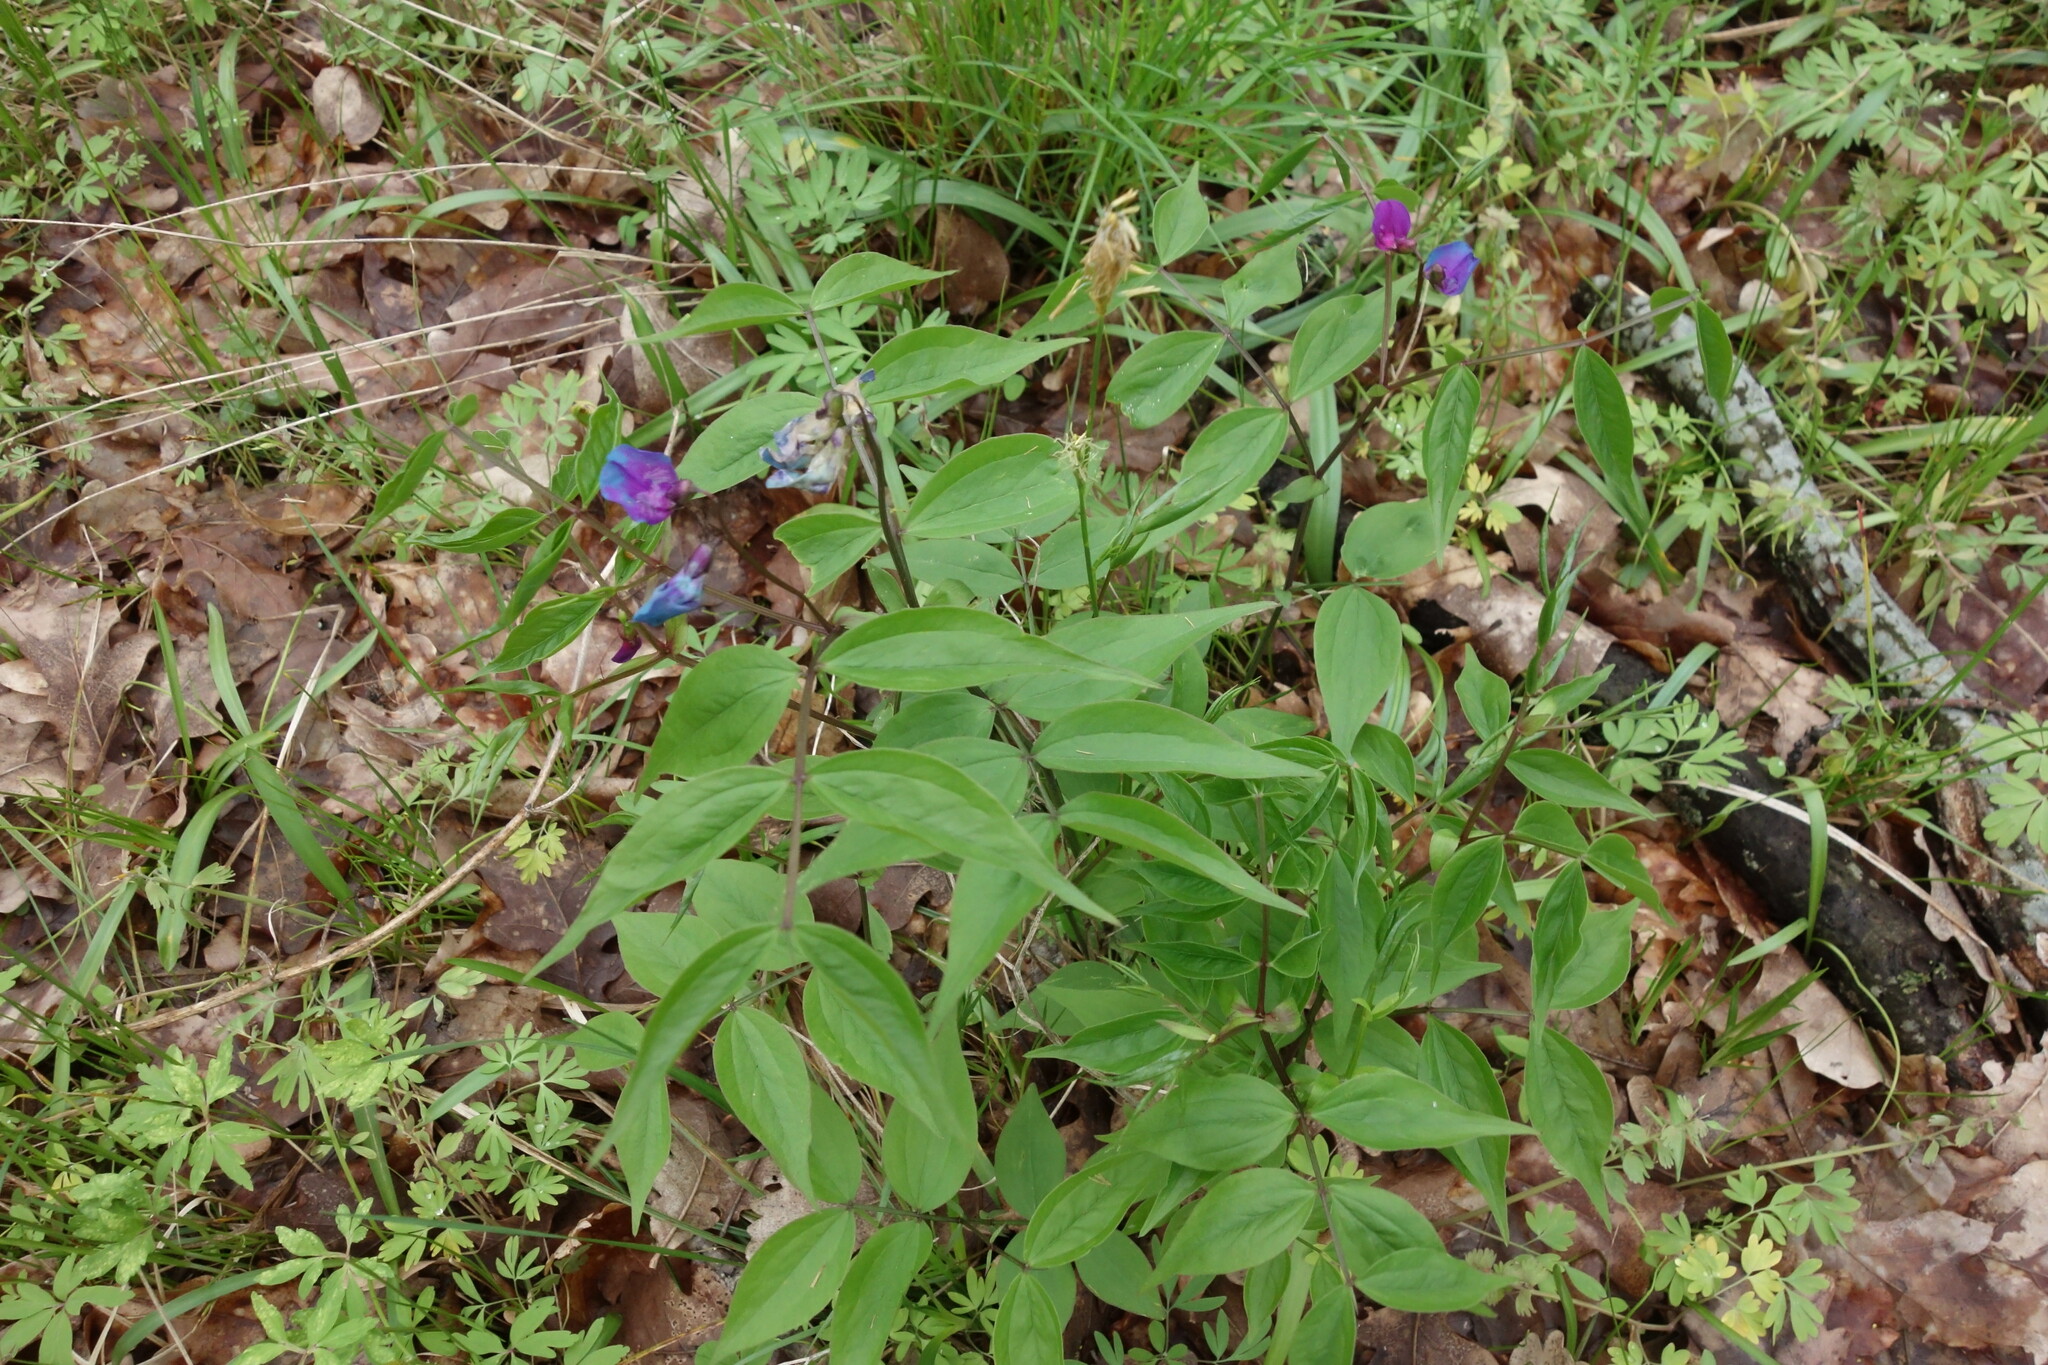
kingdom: Plantae
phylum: Tracheophyta
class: Magnoliopsida
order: Fabales
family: Fabaceae
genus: Lathyrus
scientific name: Lathyrus vernus
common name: Spring pea
